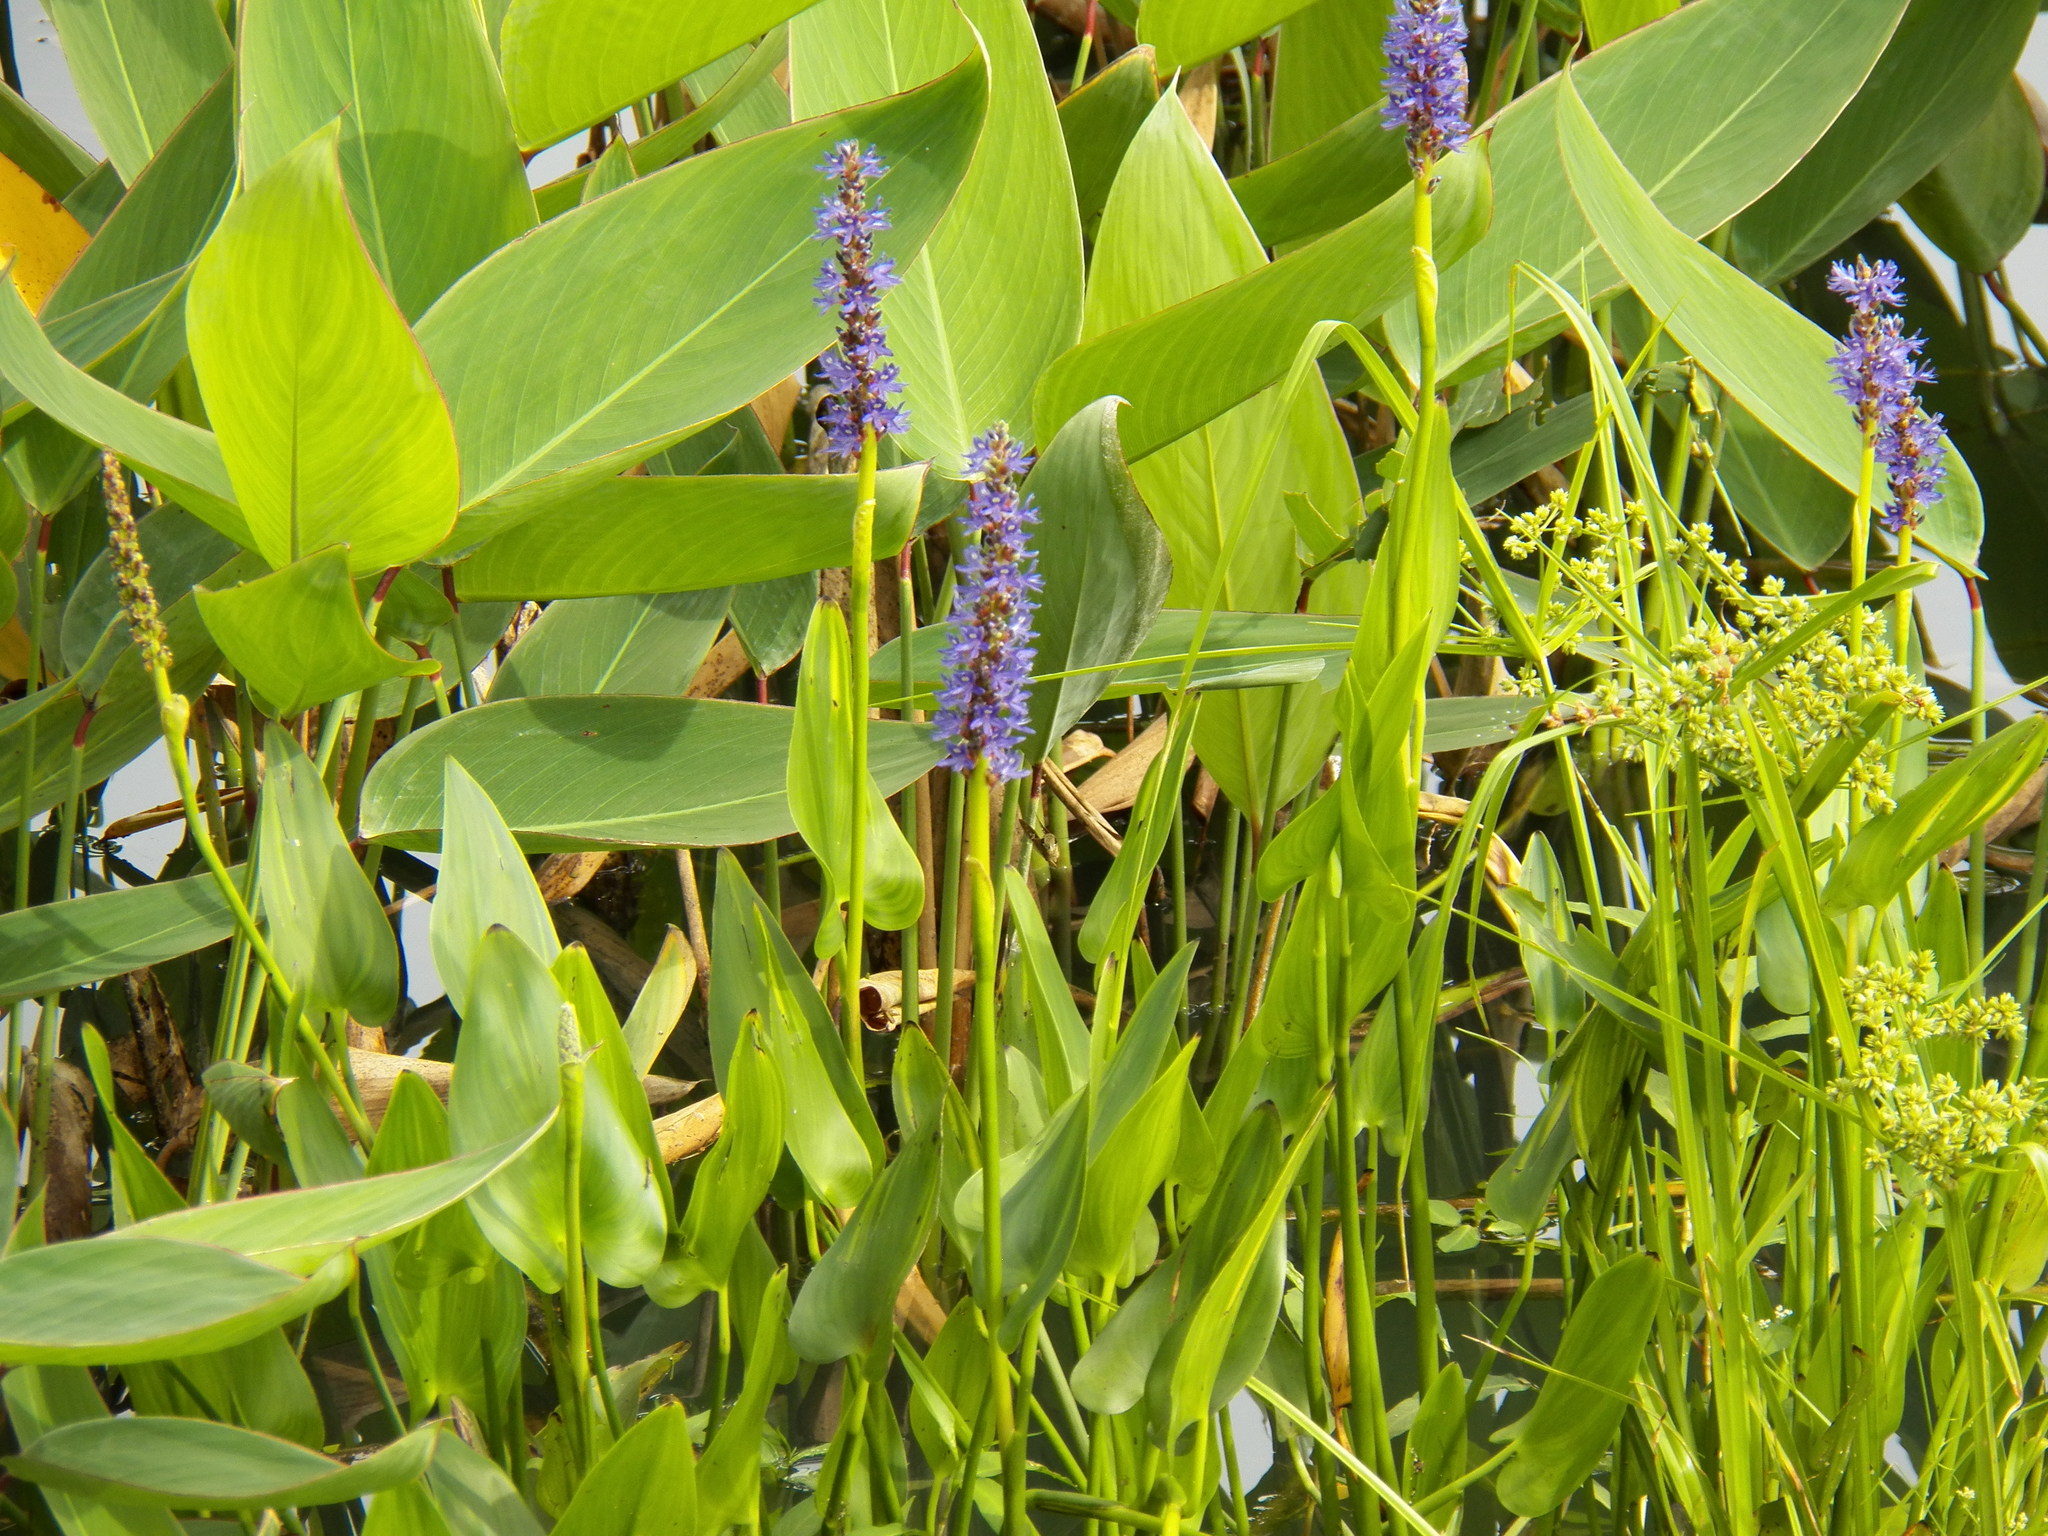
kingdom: Plantae
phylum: Tracheophyta
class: Liliopsida
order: Commelinales
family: Pontederiaceae
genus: Pontederia
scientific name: Pontederia cordata
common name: Pickerelweed
